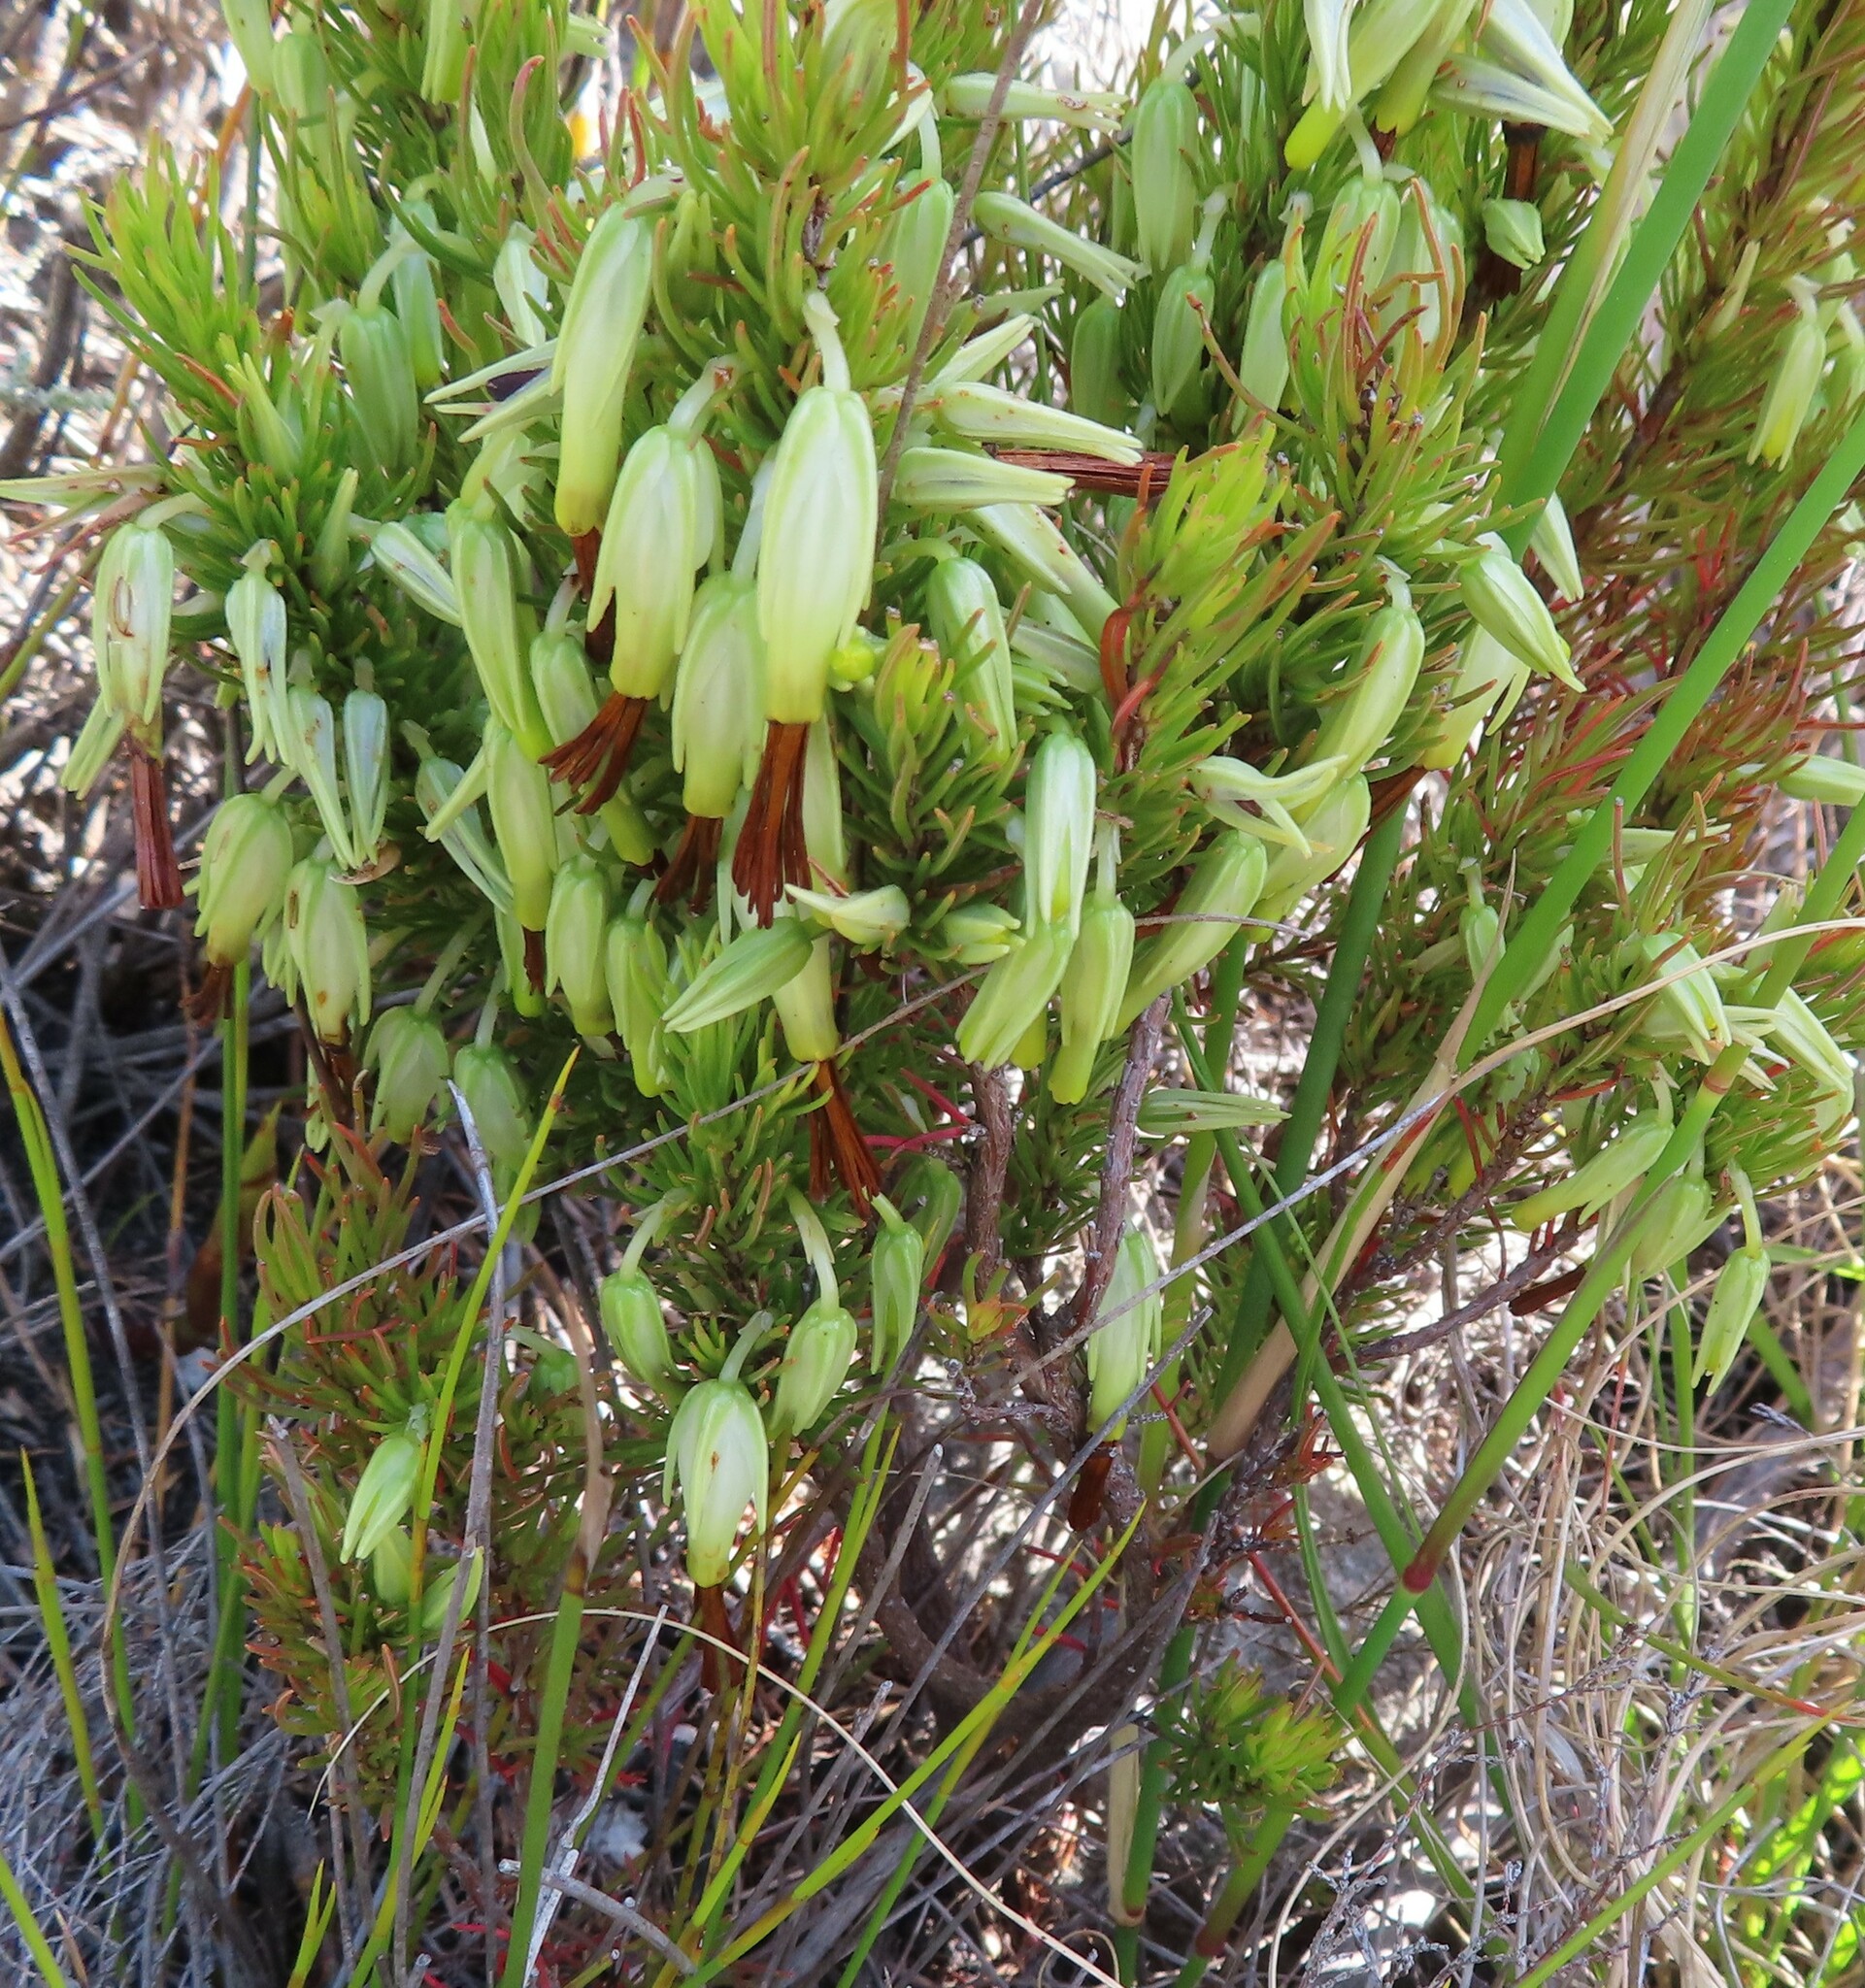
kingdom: Plantae
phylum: Tracheophyta
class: Magnoliopsida
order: Ericales
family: Ericaceae
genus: Erica
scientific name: Erica plukenetii
